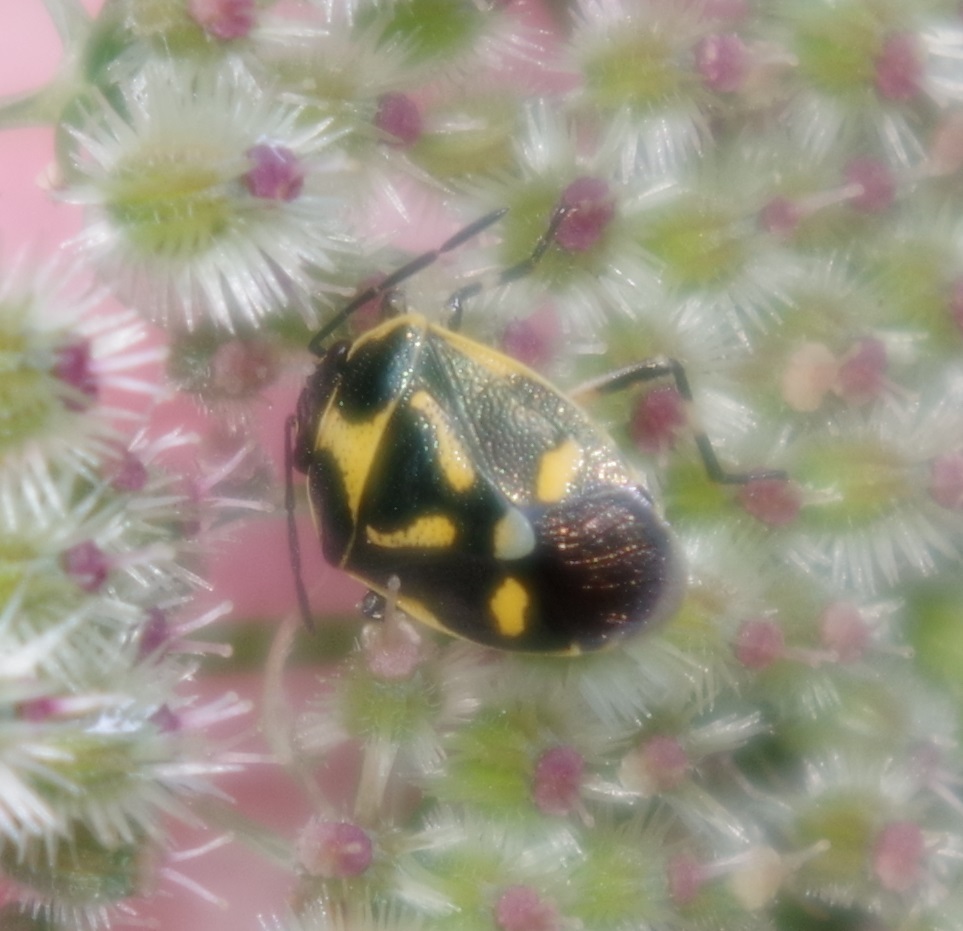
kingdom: Animalia
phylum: Arthropoda
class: Insecta
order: Hemiptera
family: Pentatomidae
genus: Eurydema
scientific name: Eurydema oleracea
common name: Cabbage bug
